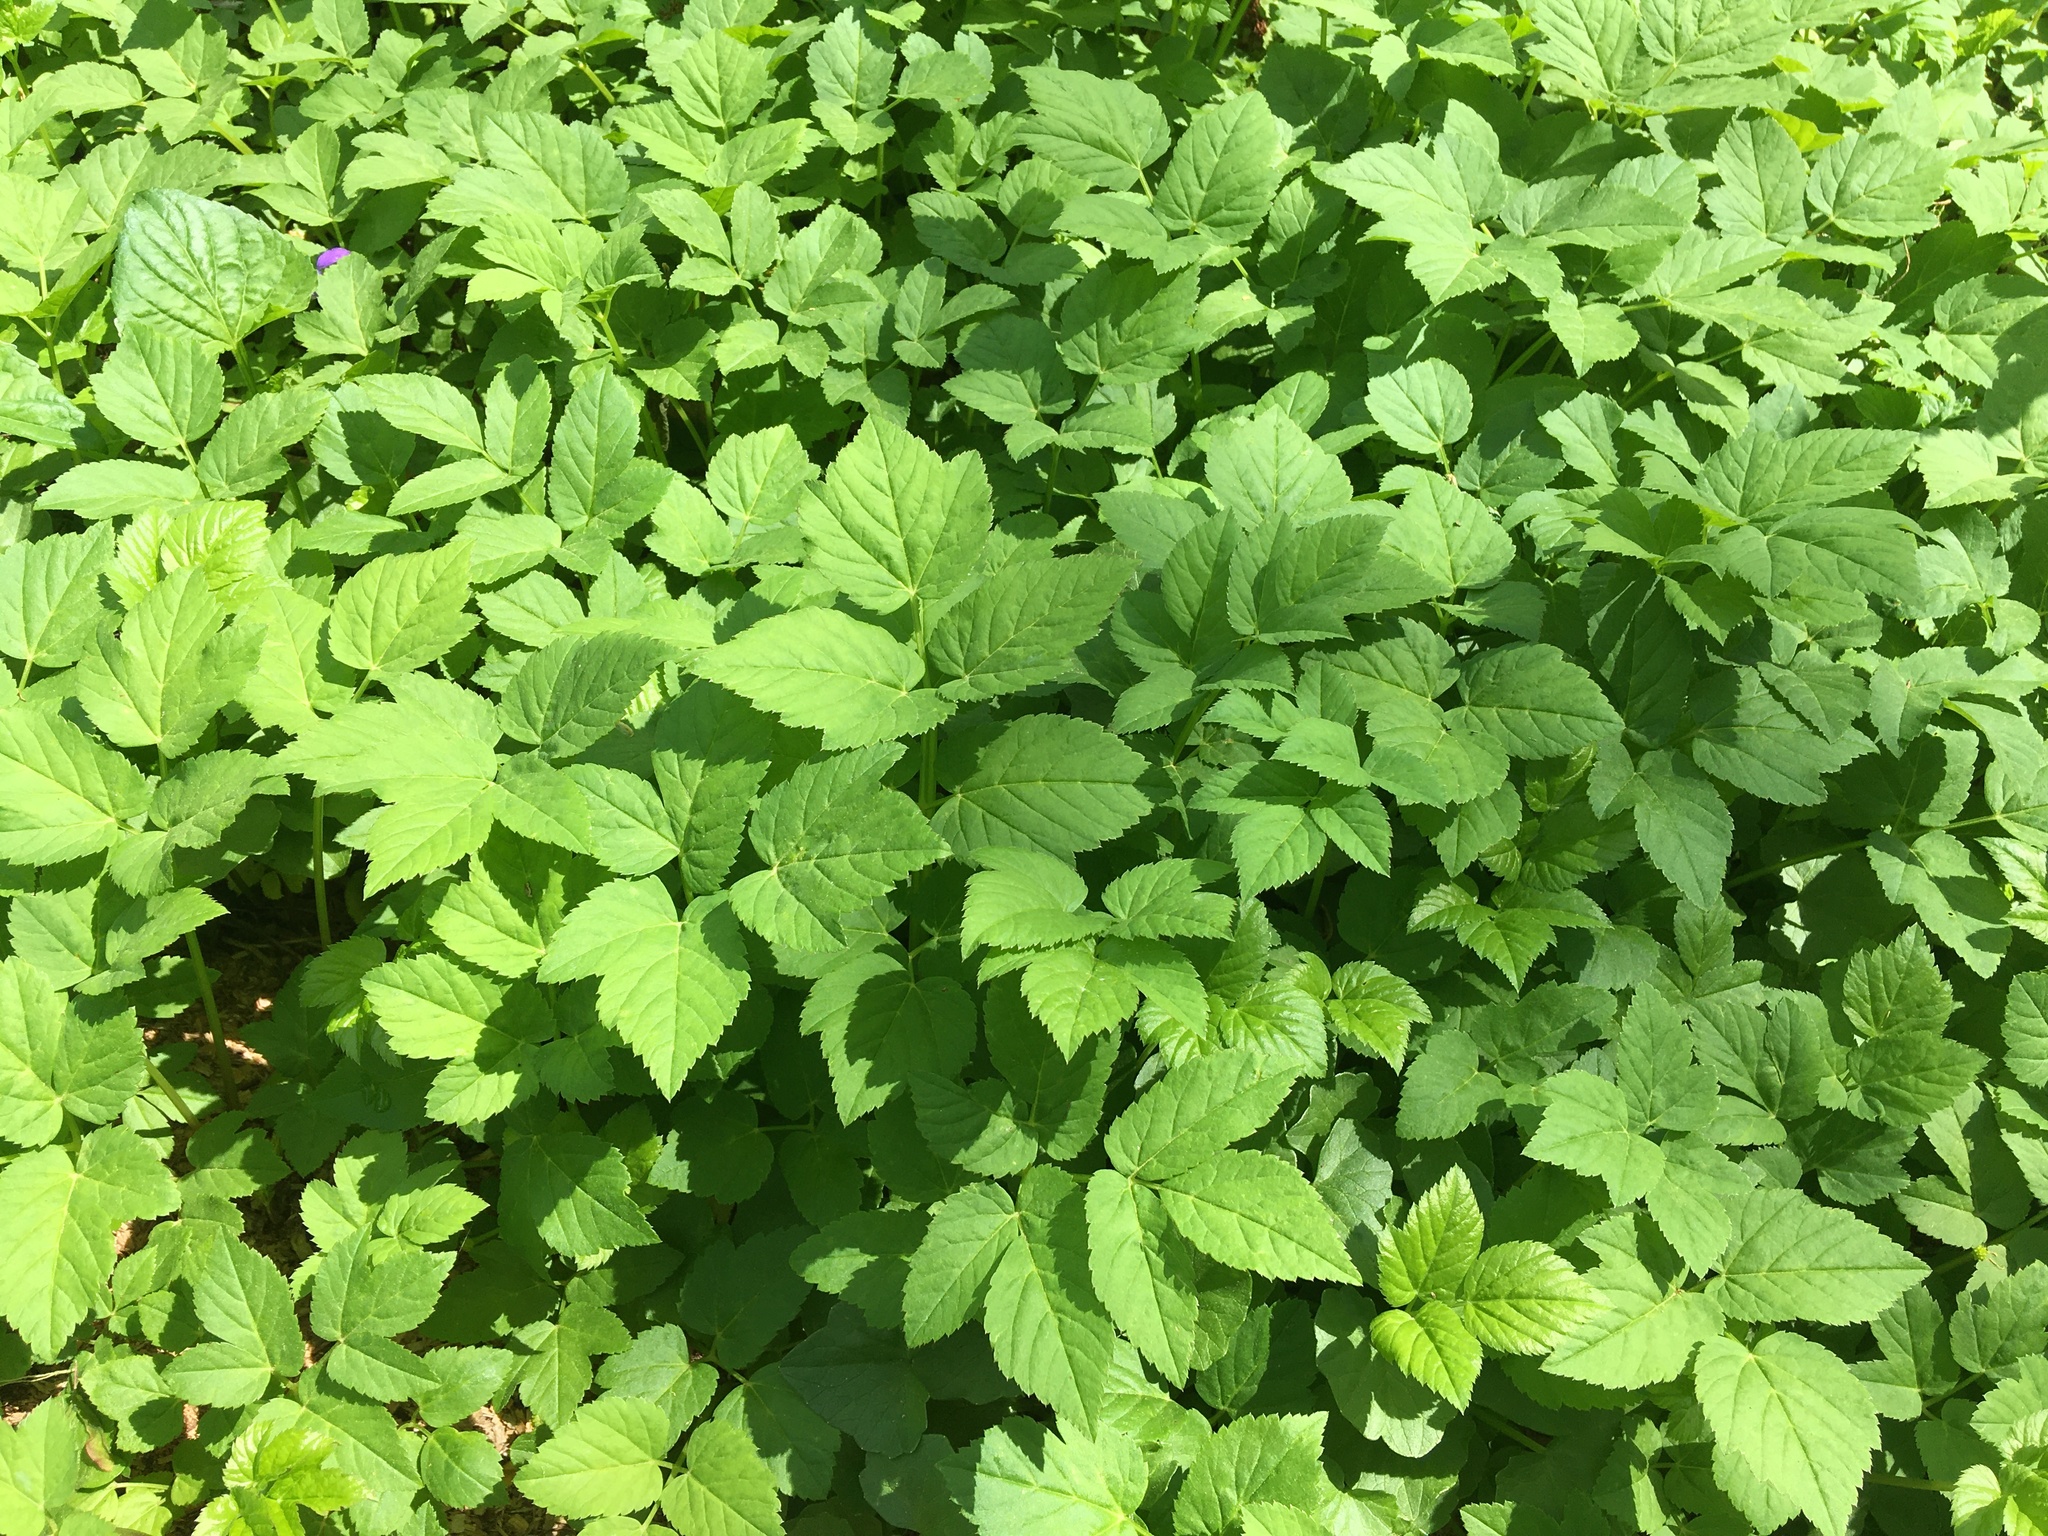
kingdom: Plantae
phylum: Tracheophyta
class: Magnoliopsida
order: Apiales
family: Apiaceae
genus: Aegopodium
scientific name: Aegopodium podagraria
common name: Ground-elder
